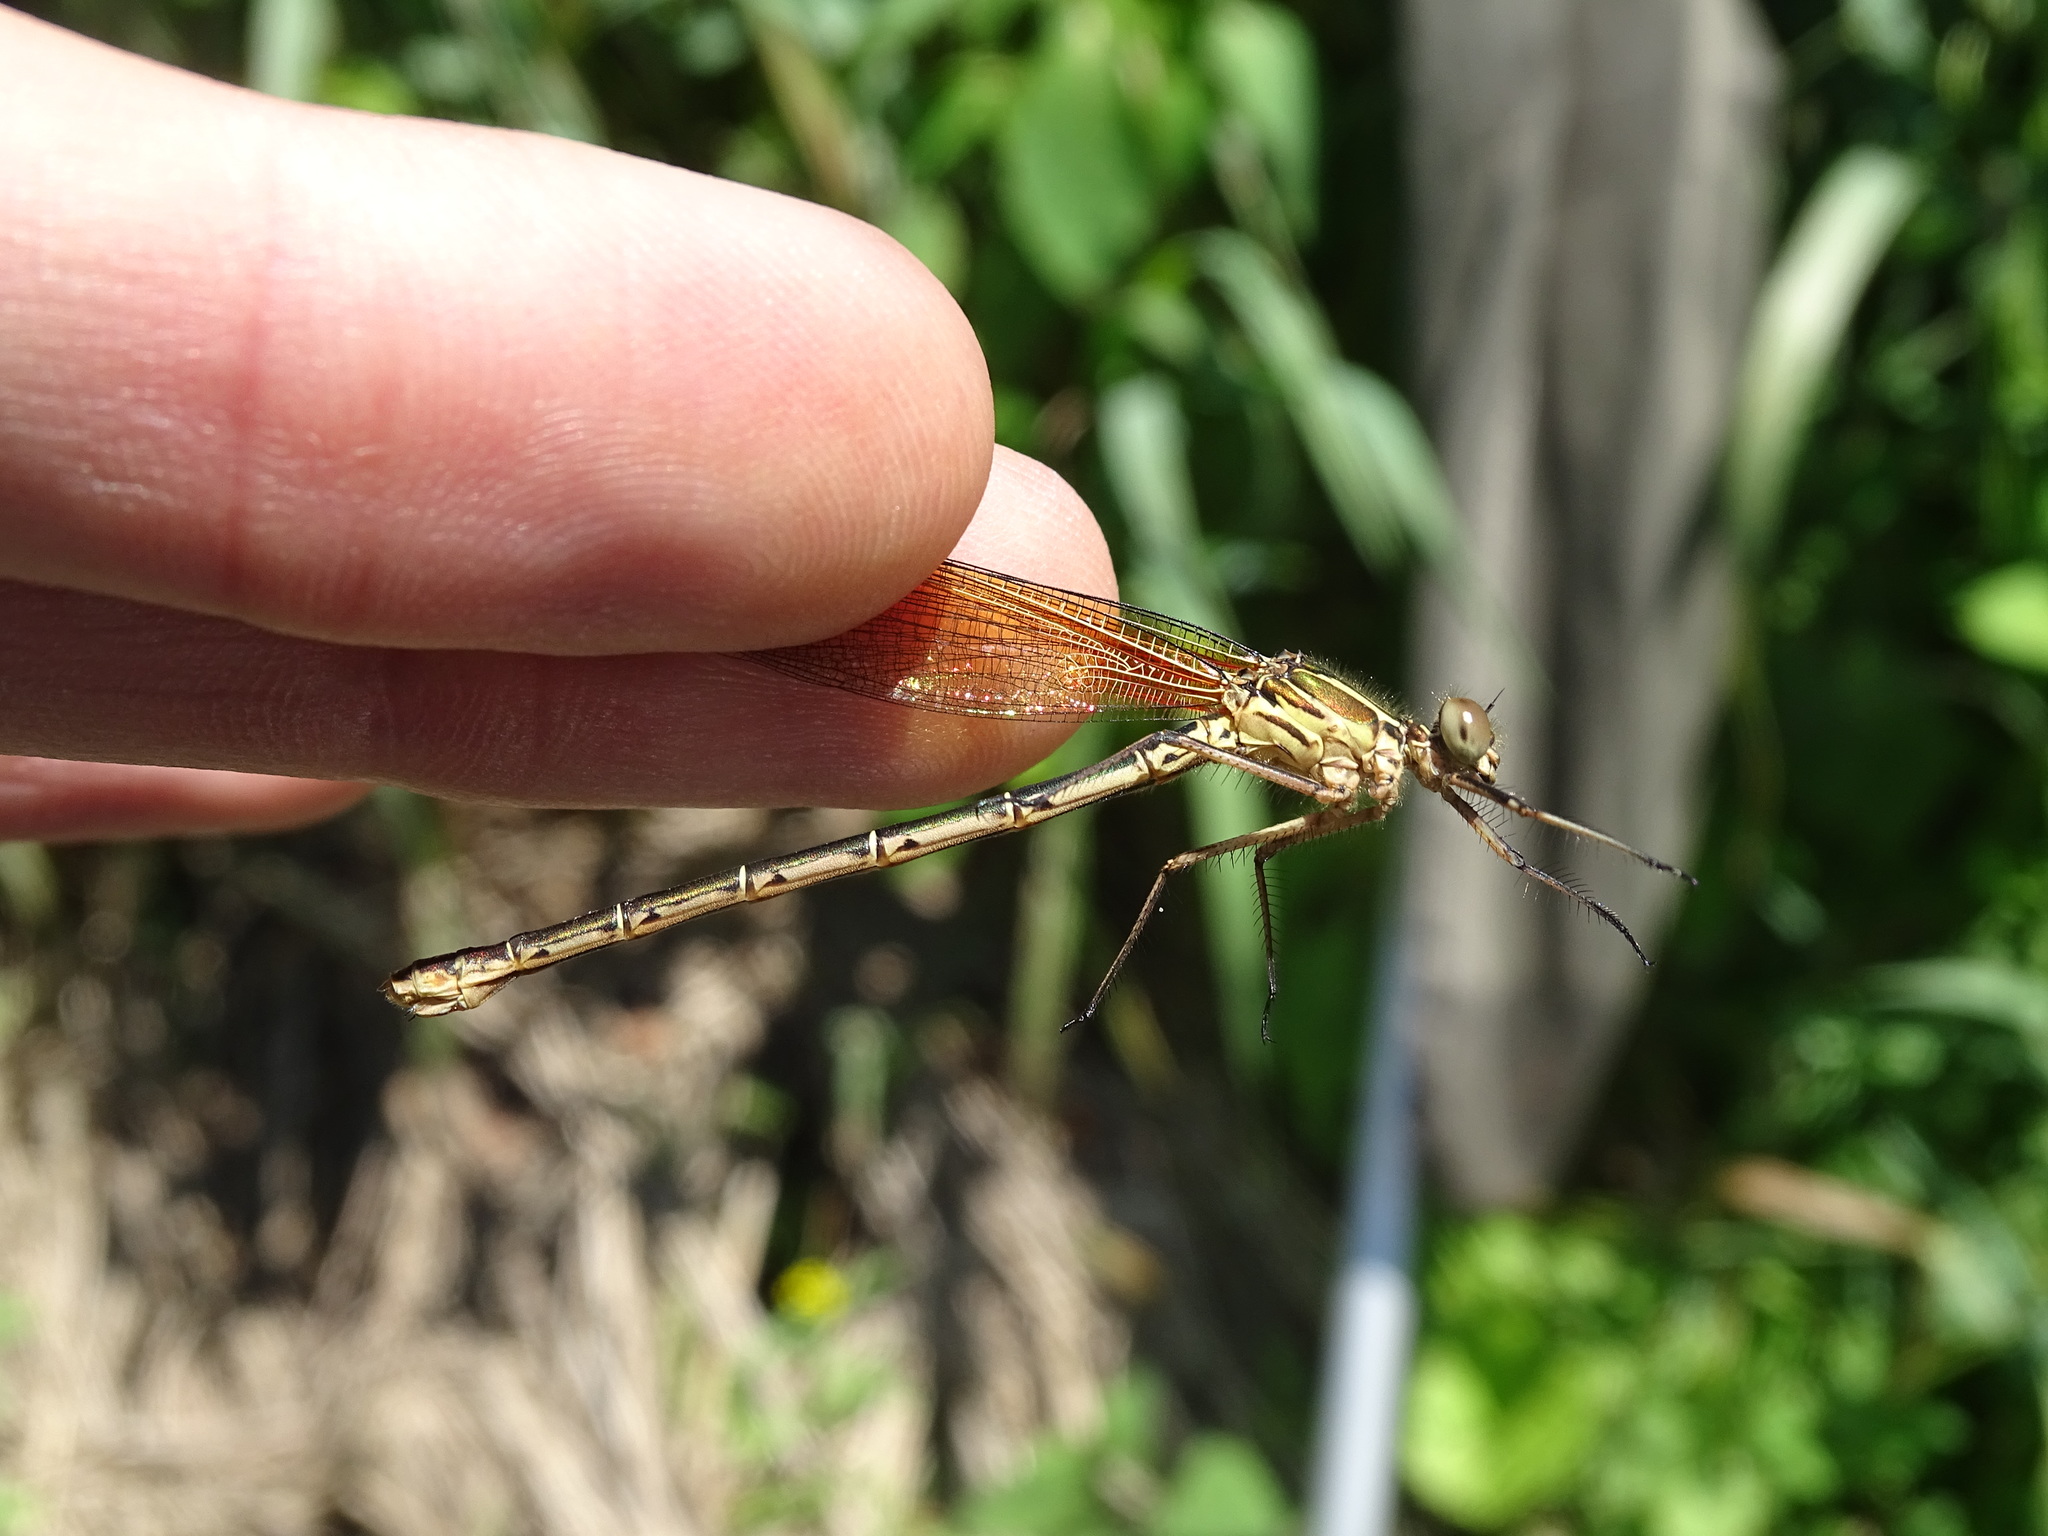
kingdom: Animalia
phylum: Arthropoda
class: Insecta
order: Odonata
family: Calopterygidae
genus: Hetaerina
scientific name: Hetaerina americana
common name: American rubyspot
